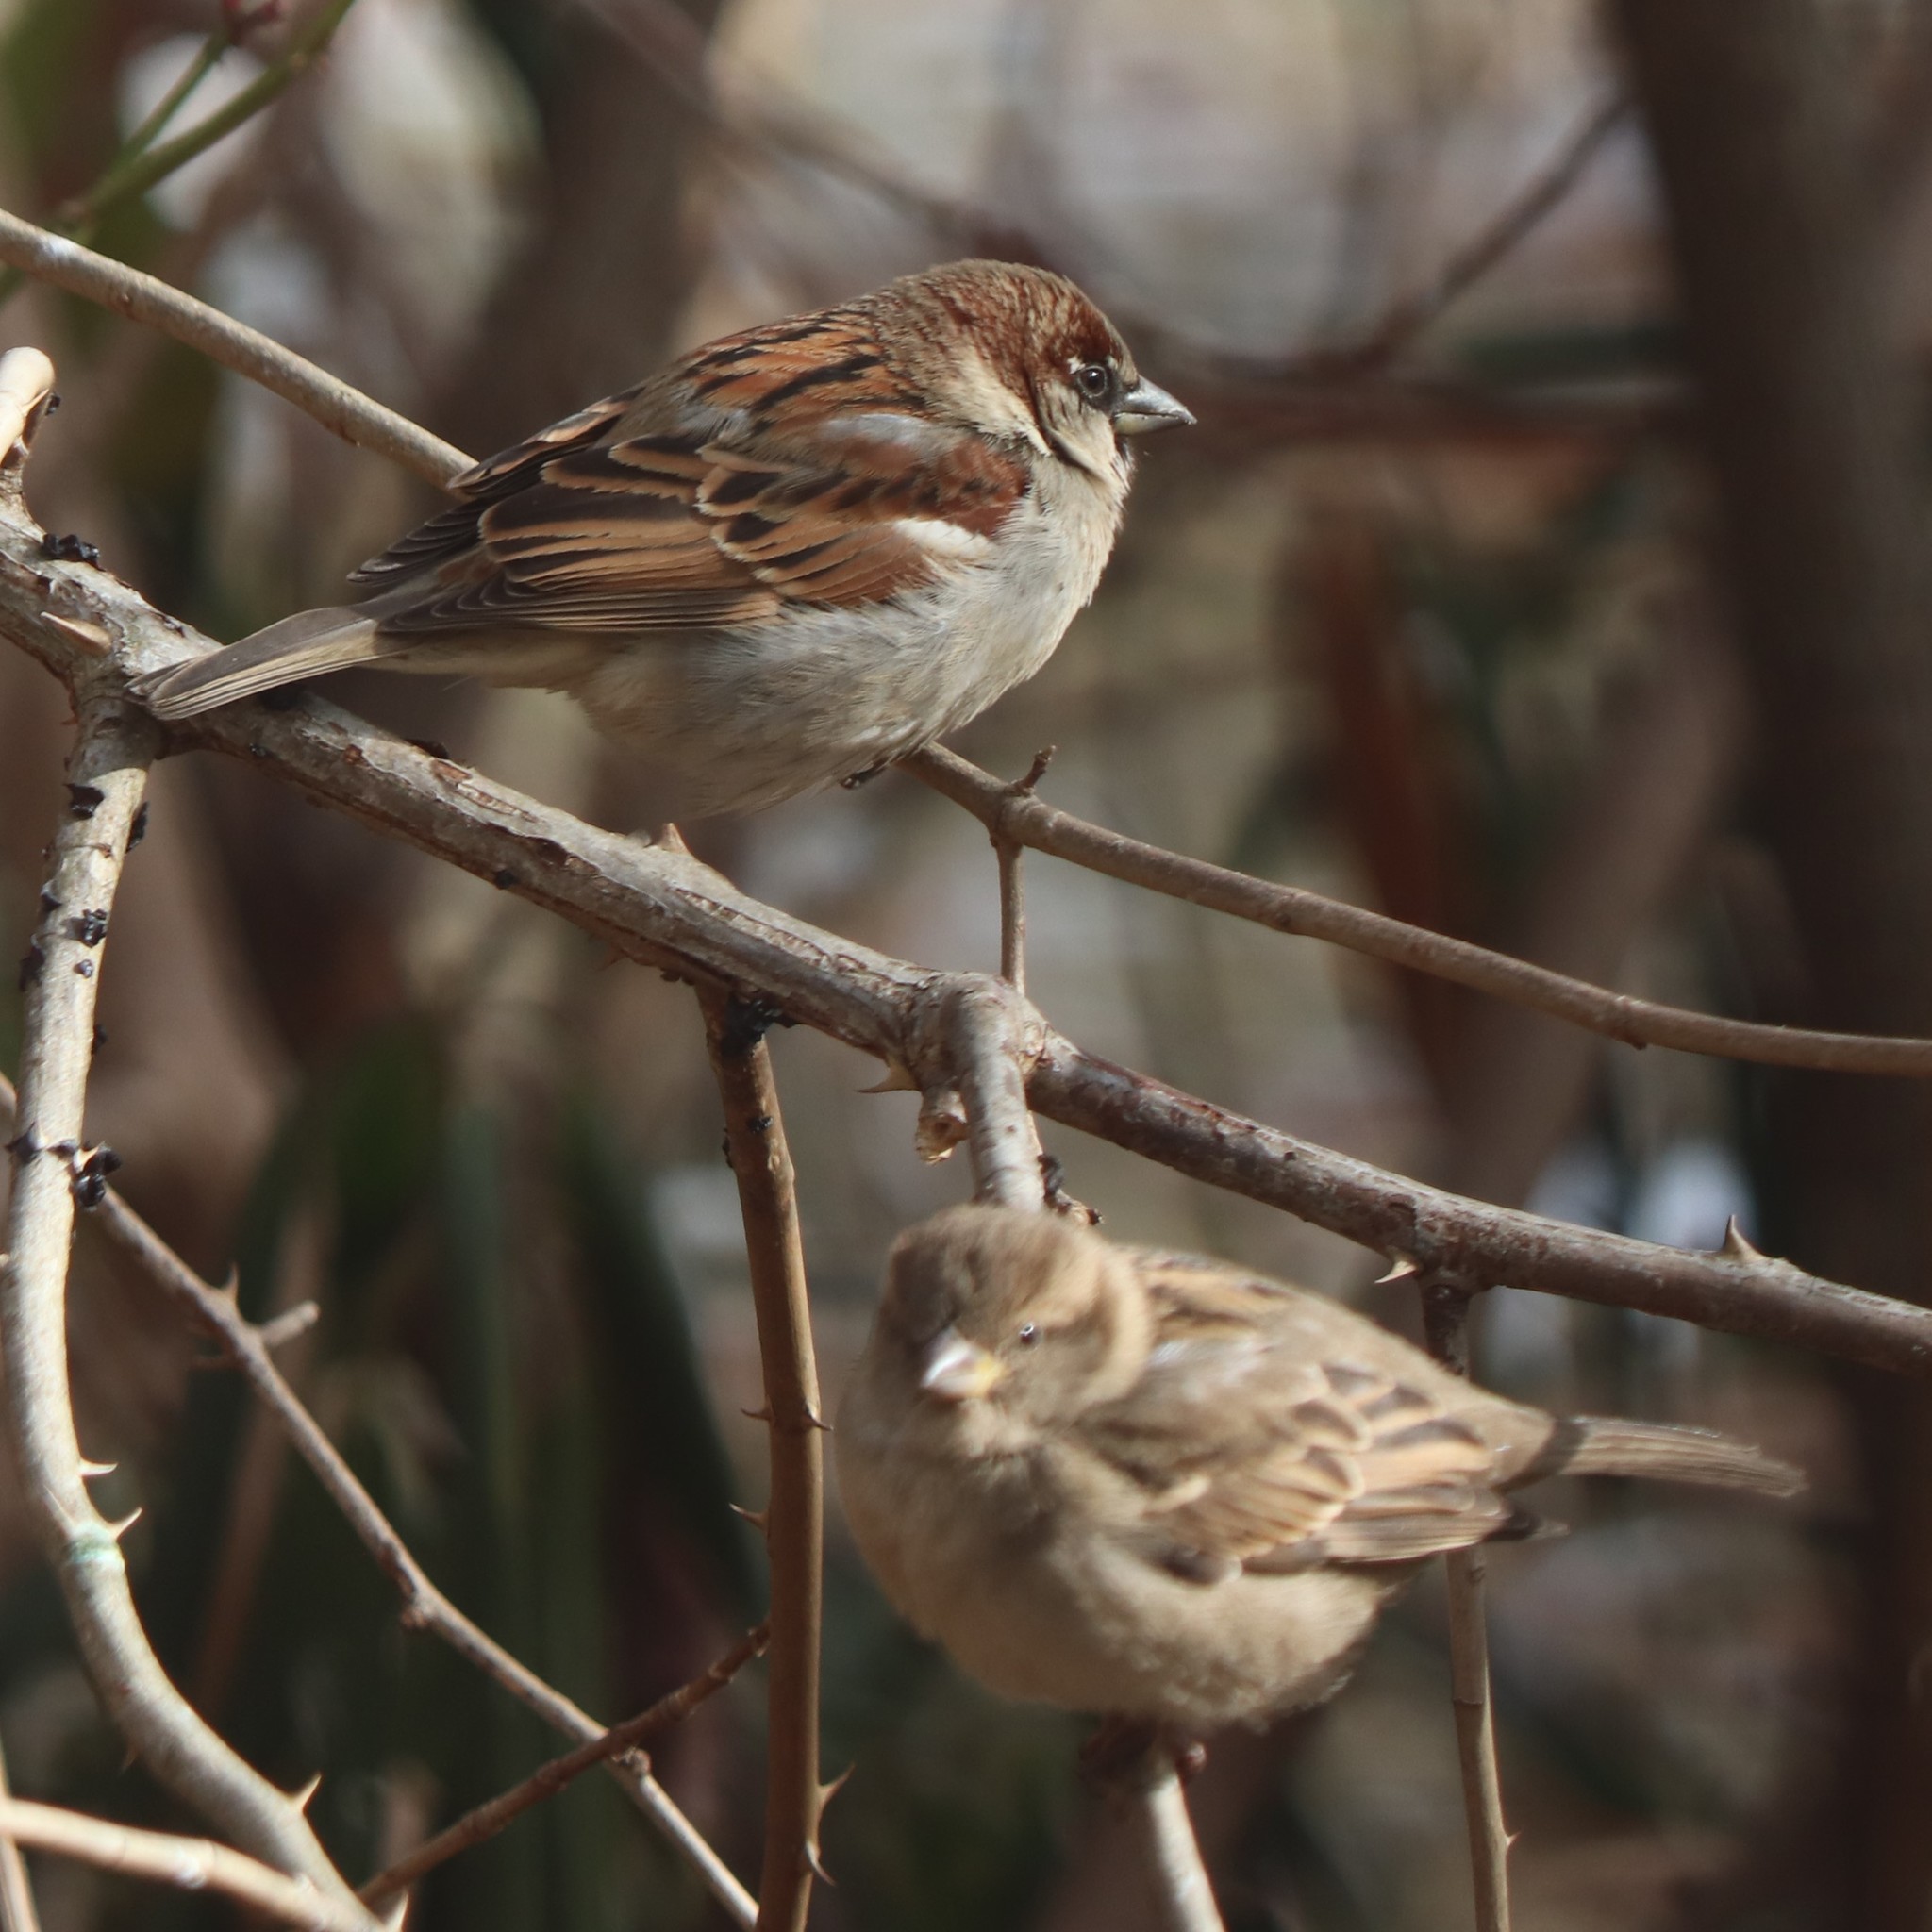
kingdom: Animalia
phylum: Chordata
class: Aves
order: Passeriformes
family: Passeridae
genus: Passer
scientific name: Passer domesticus
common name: House sparrow
